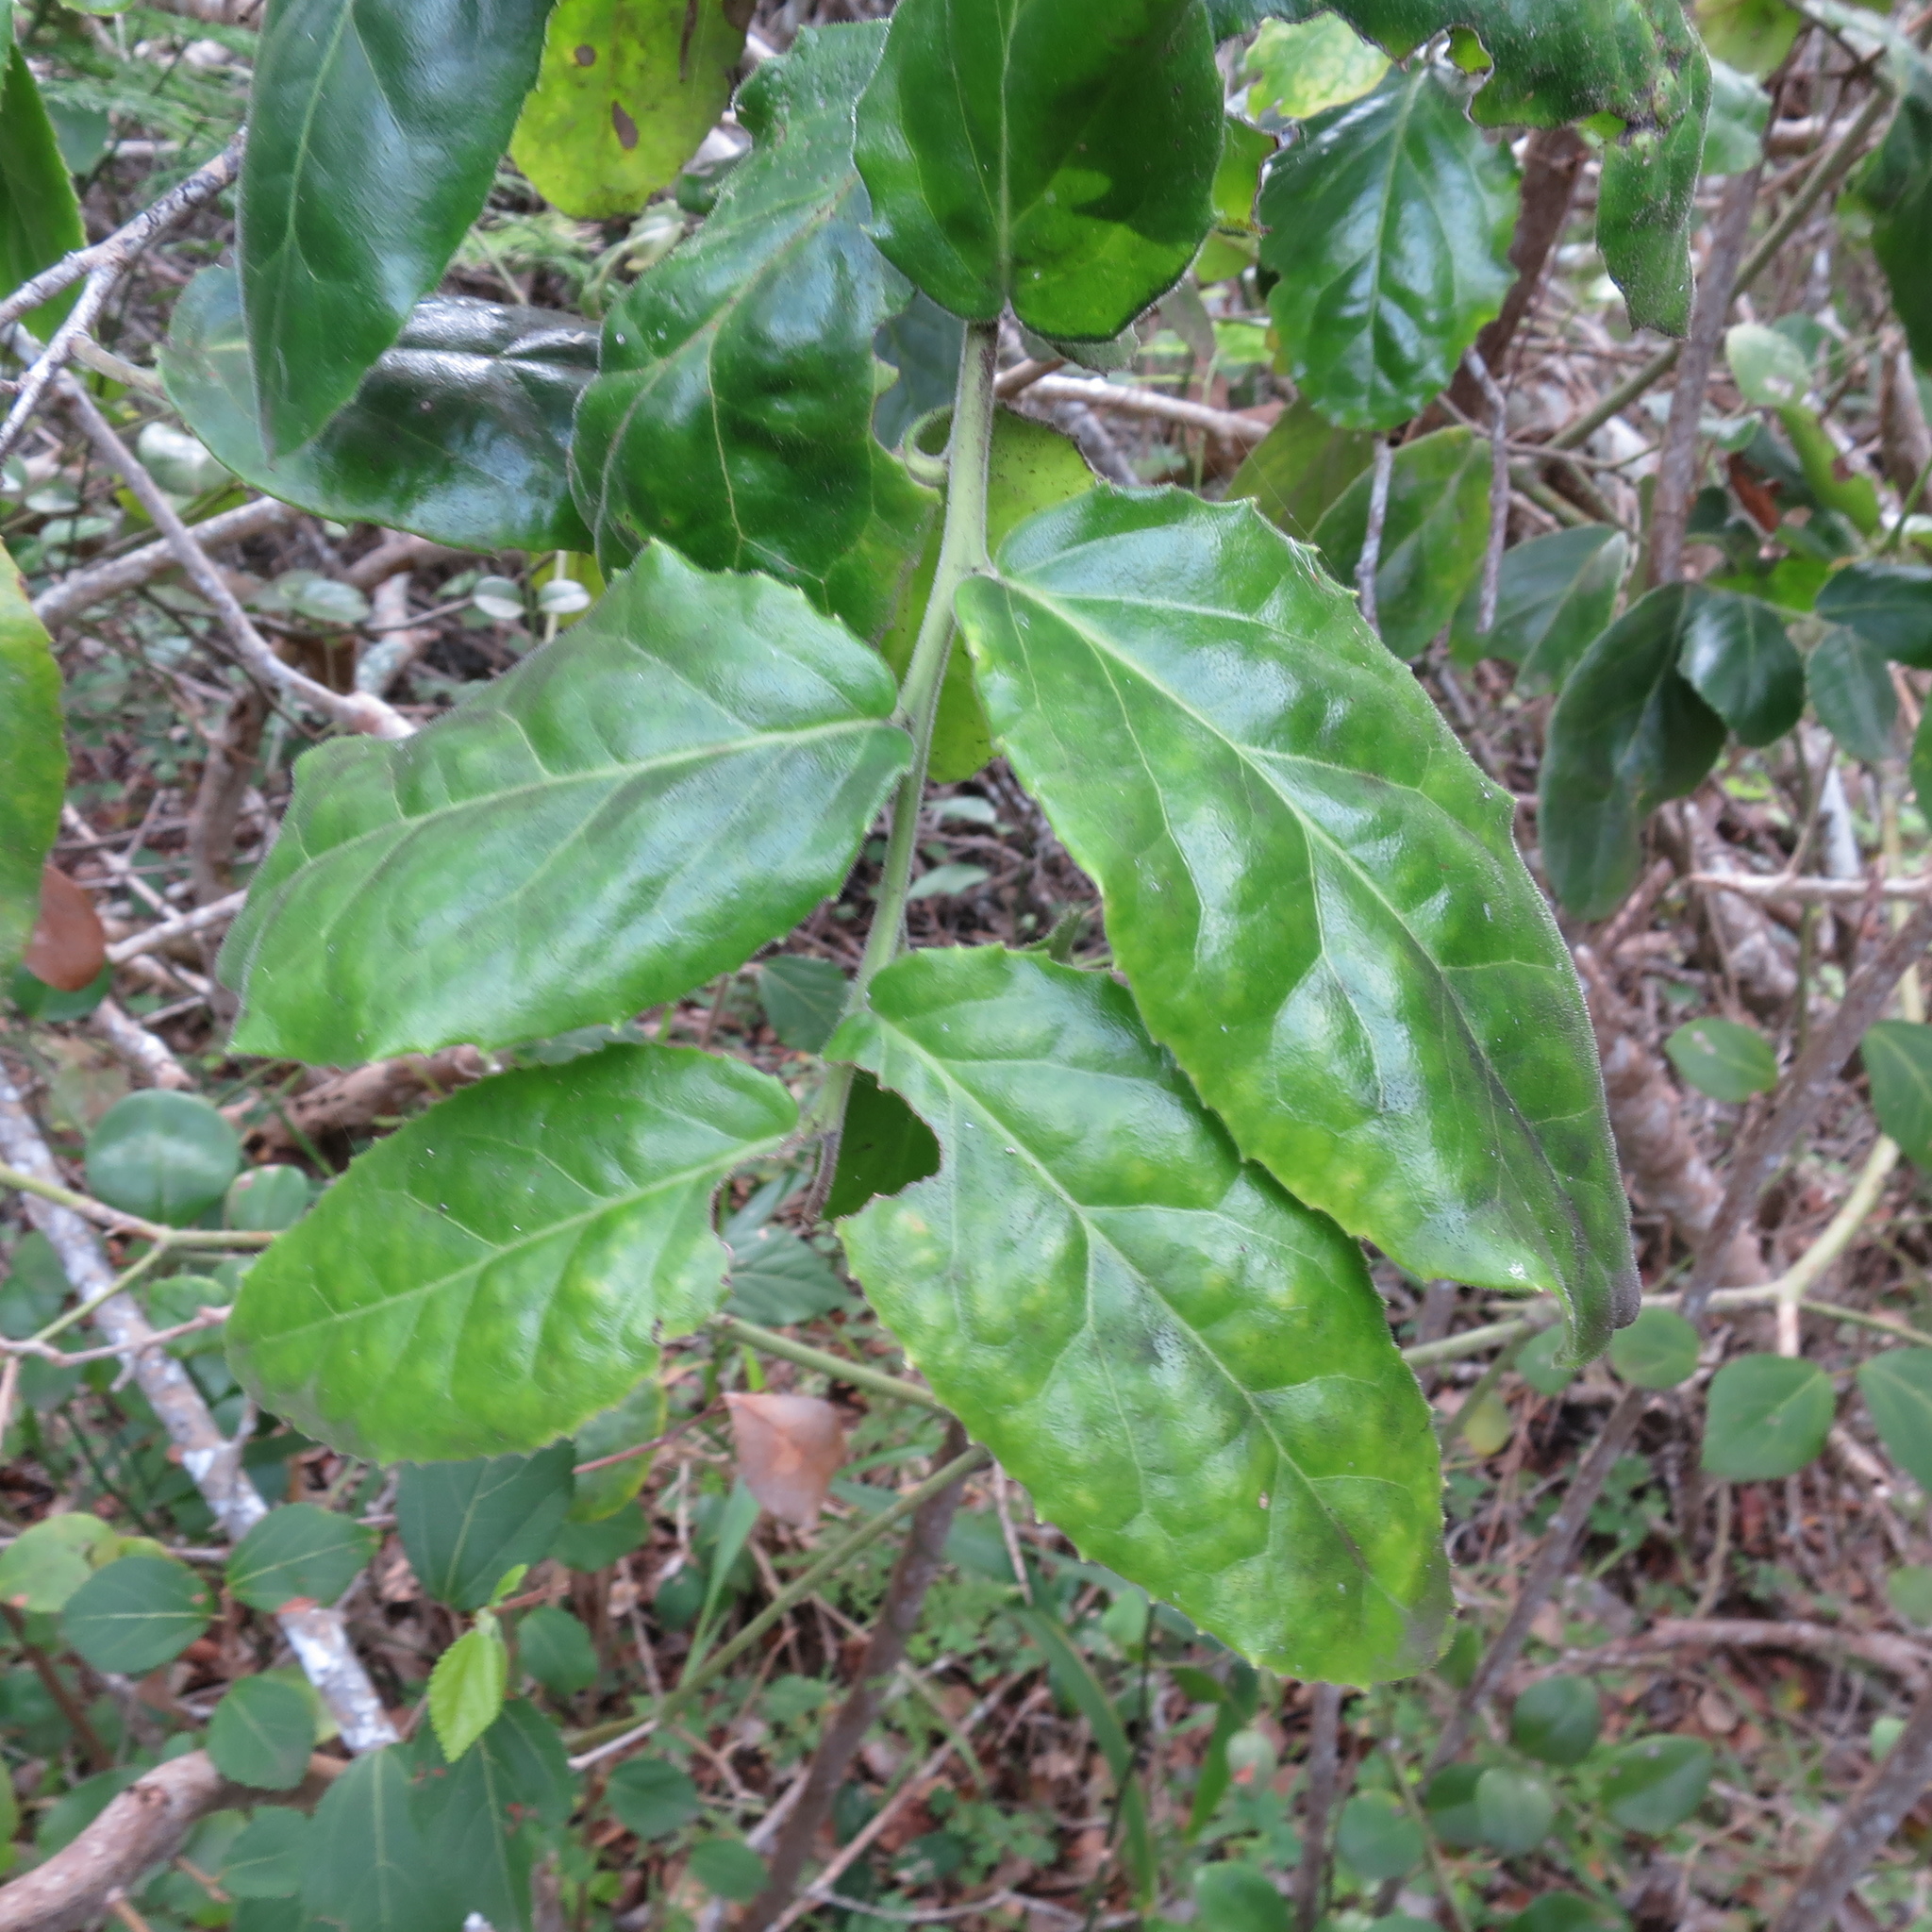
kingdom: Plantae
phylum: Tracheophyta
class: Magnoliopsida
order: Celastrales
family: Celastraceae
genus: Mystroxylon
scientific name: Mystroxylon aethiopicum
